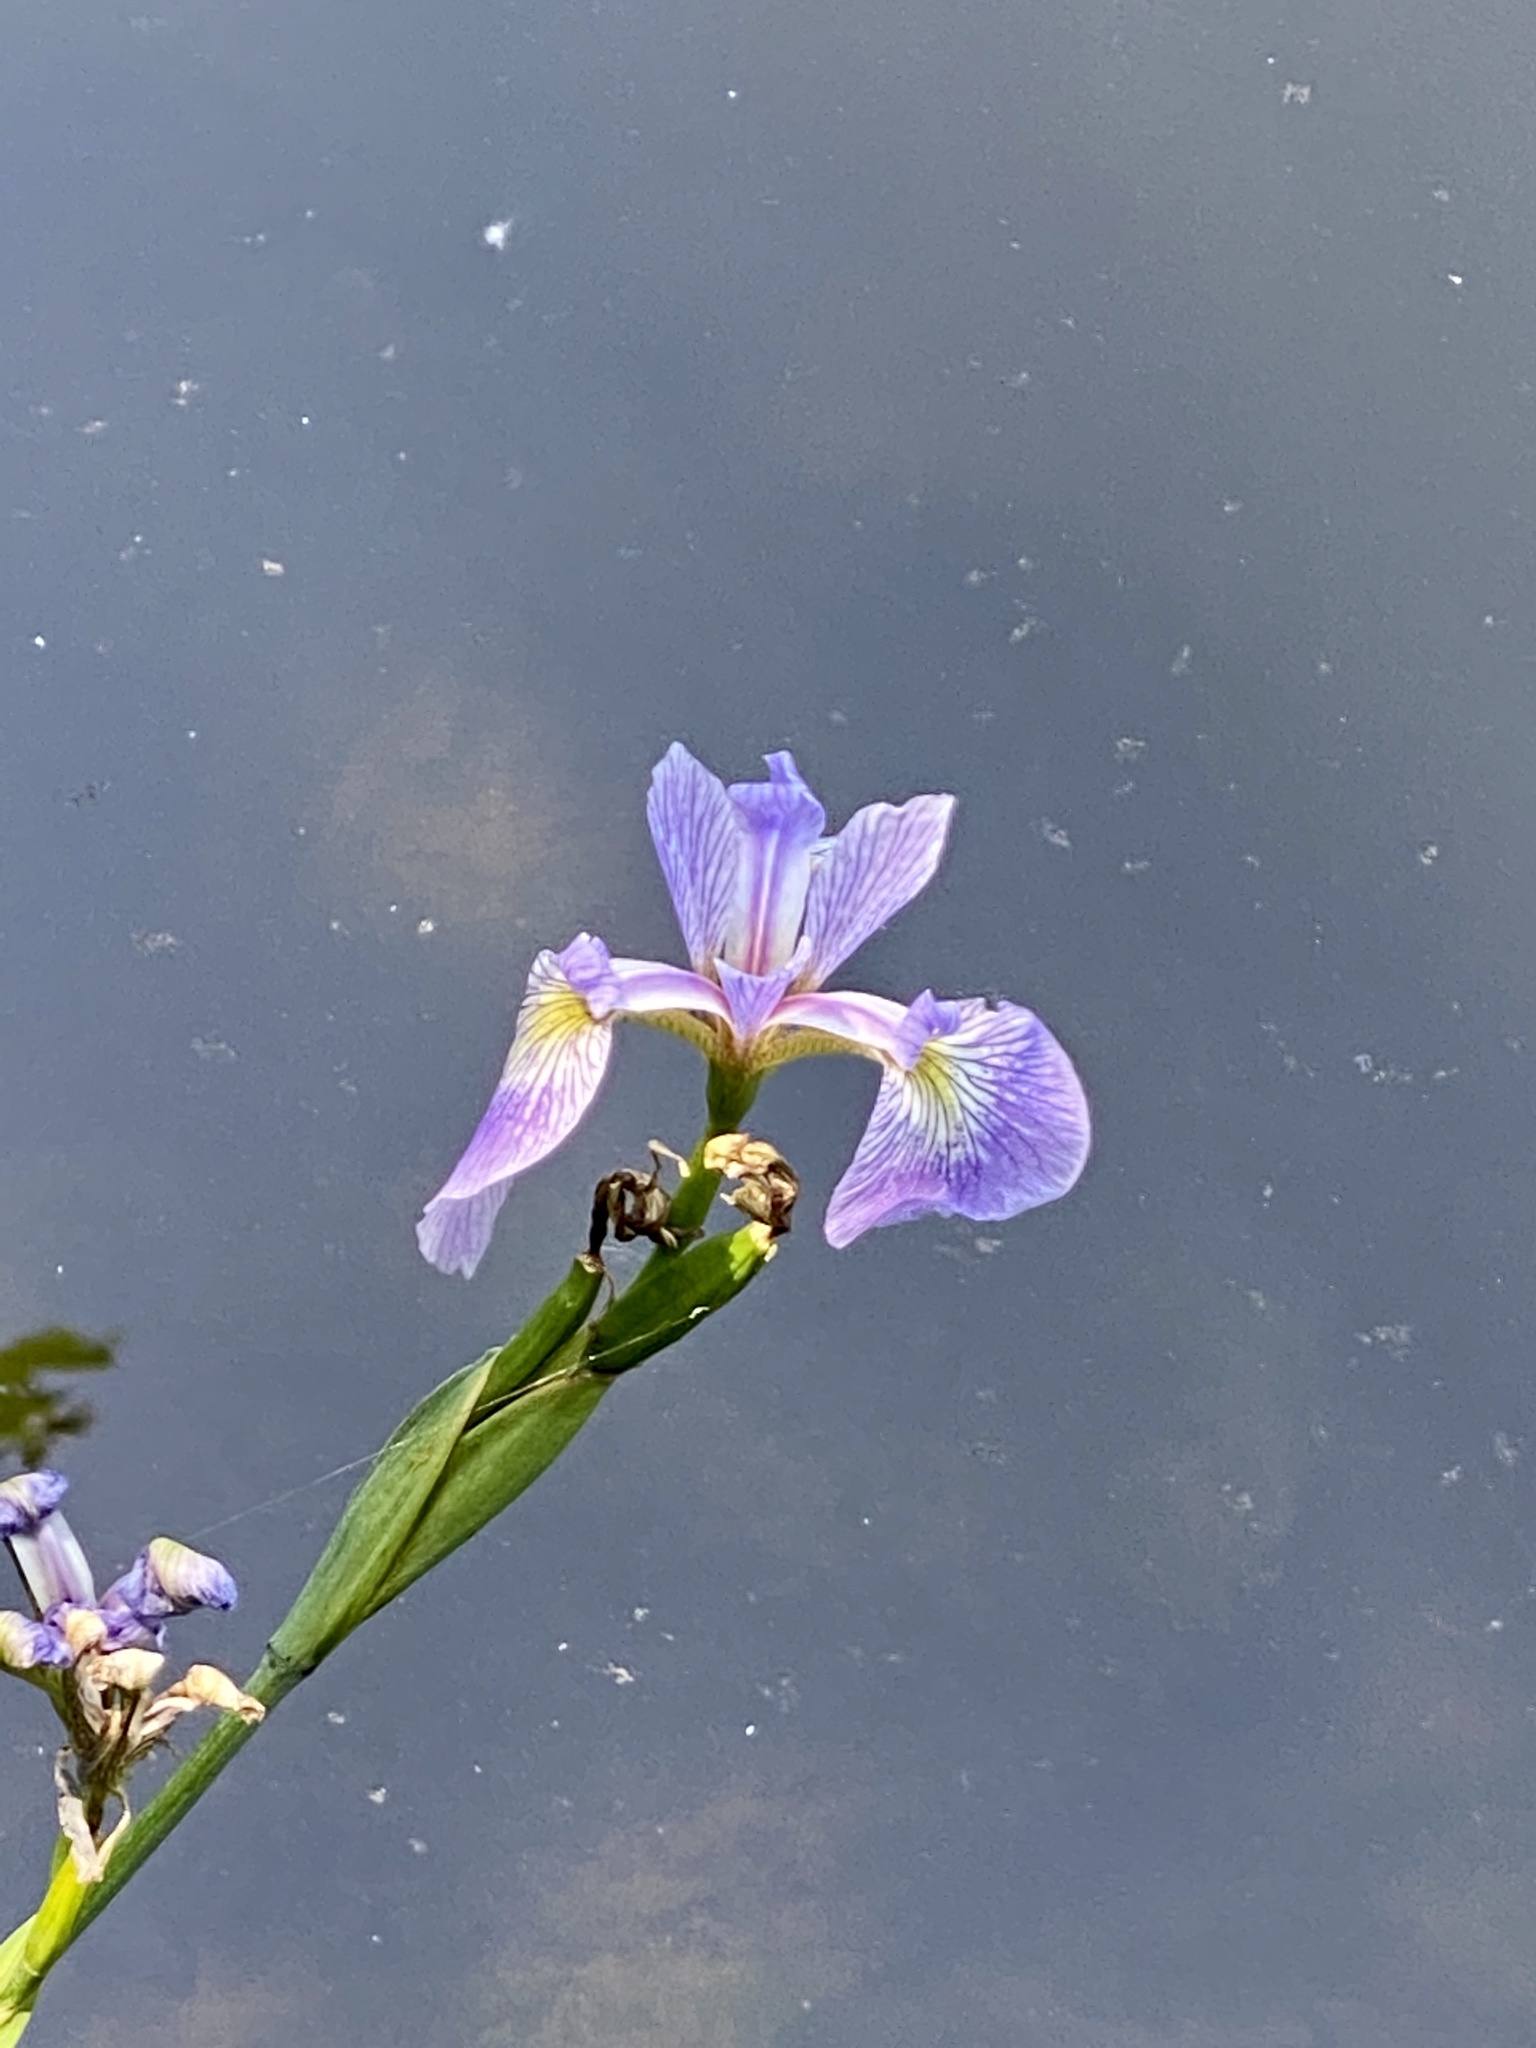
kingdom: Plantae
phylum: Tracheophyta
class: Liliopsida
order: Asparagales
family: Iridaceae
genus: Iris
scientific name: Iris versicolor
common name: Purple iris
